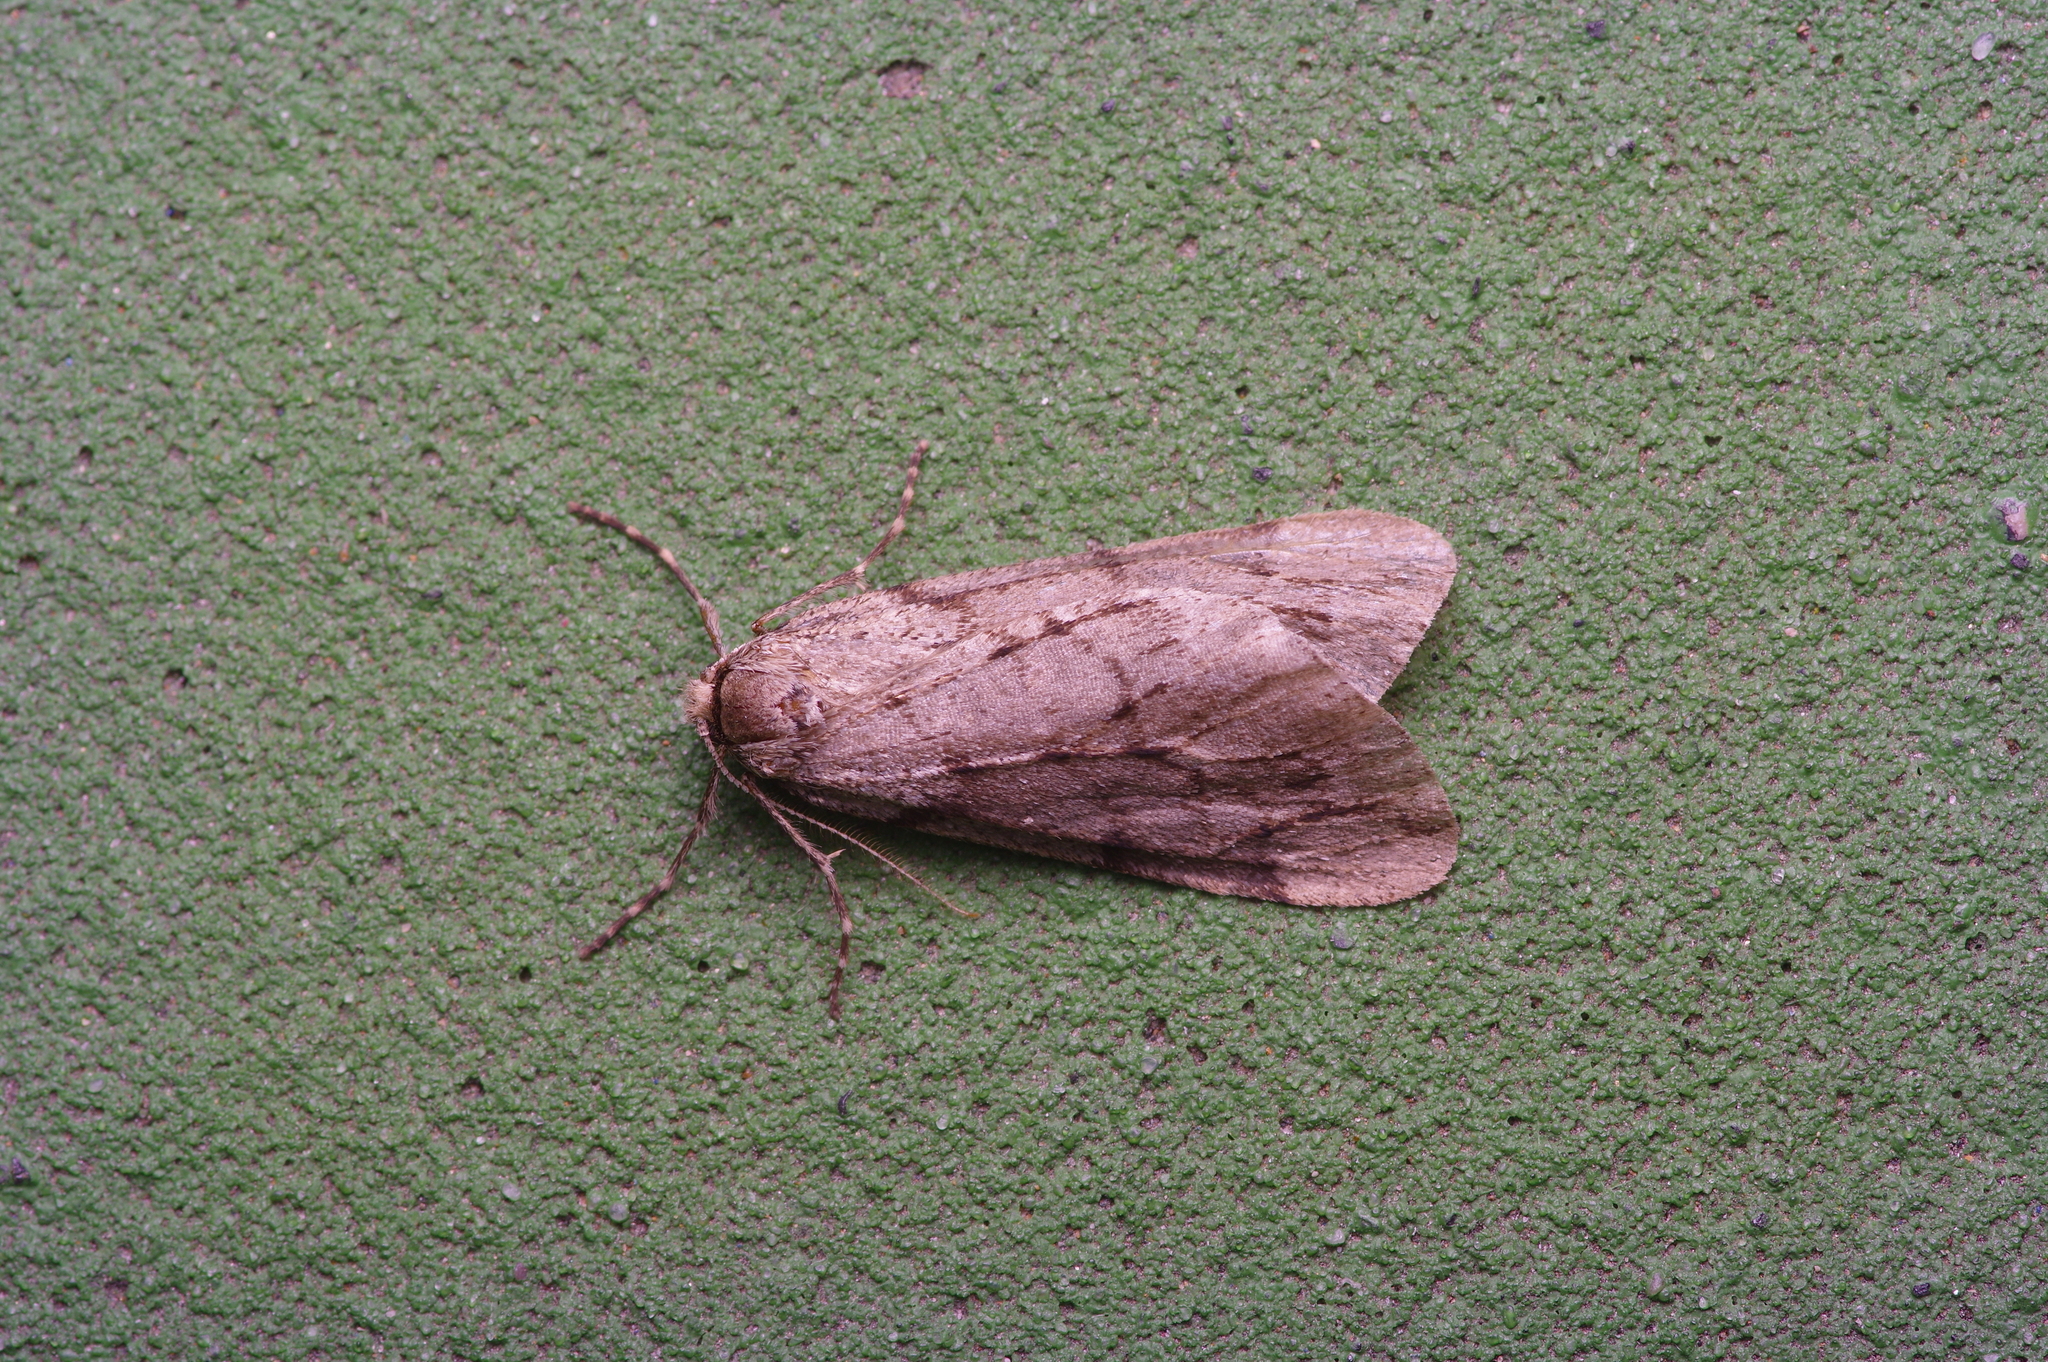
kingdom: Animalia
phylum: Arthropoda
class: Insecta
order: Lepidoptera
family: Geometridae
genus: Paleacrita
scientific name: Paleacrita vernata
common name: Spring cankerworm
